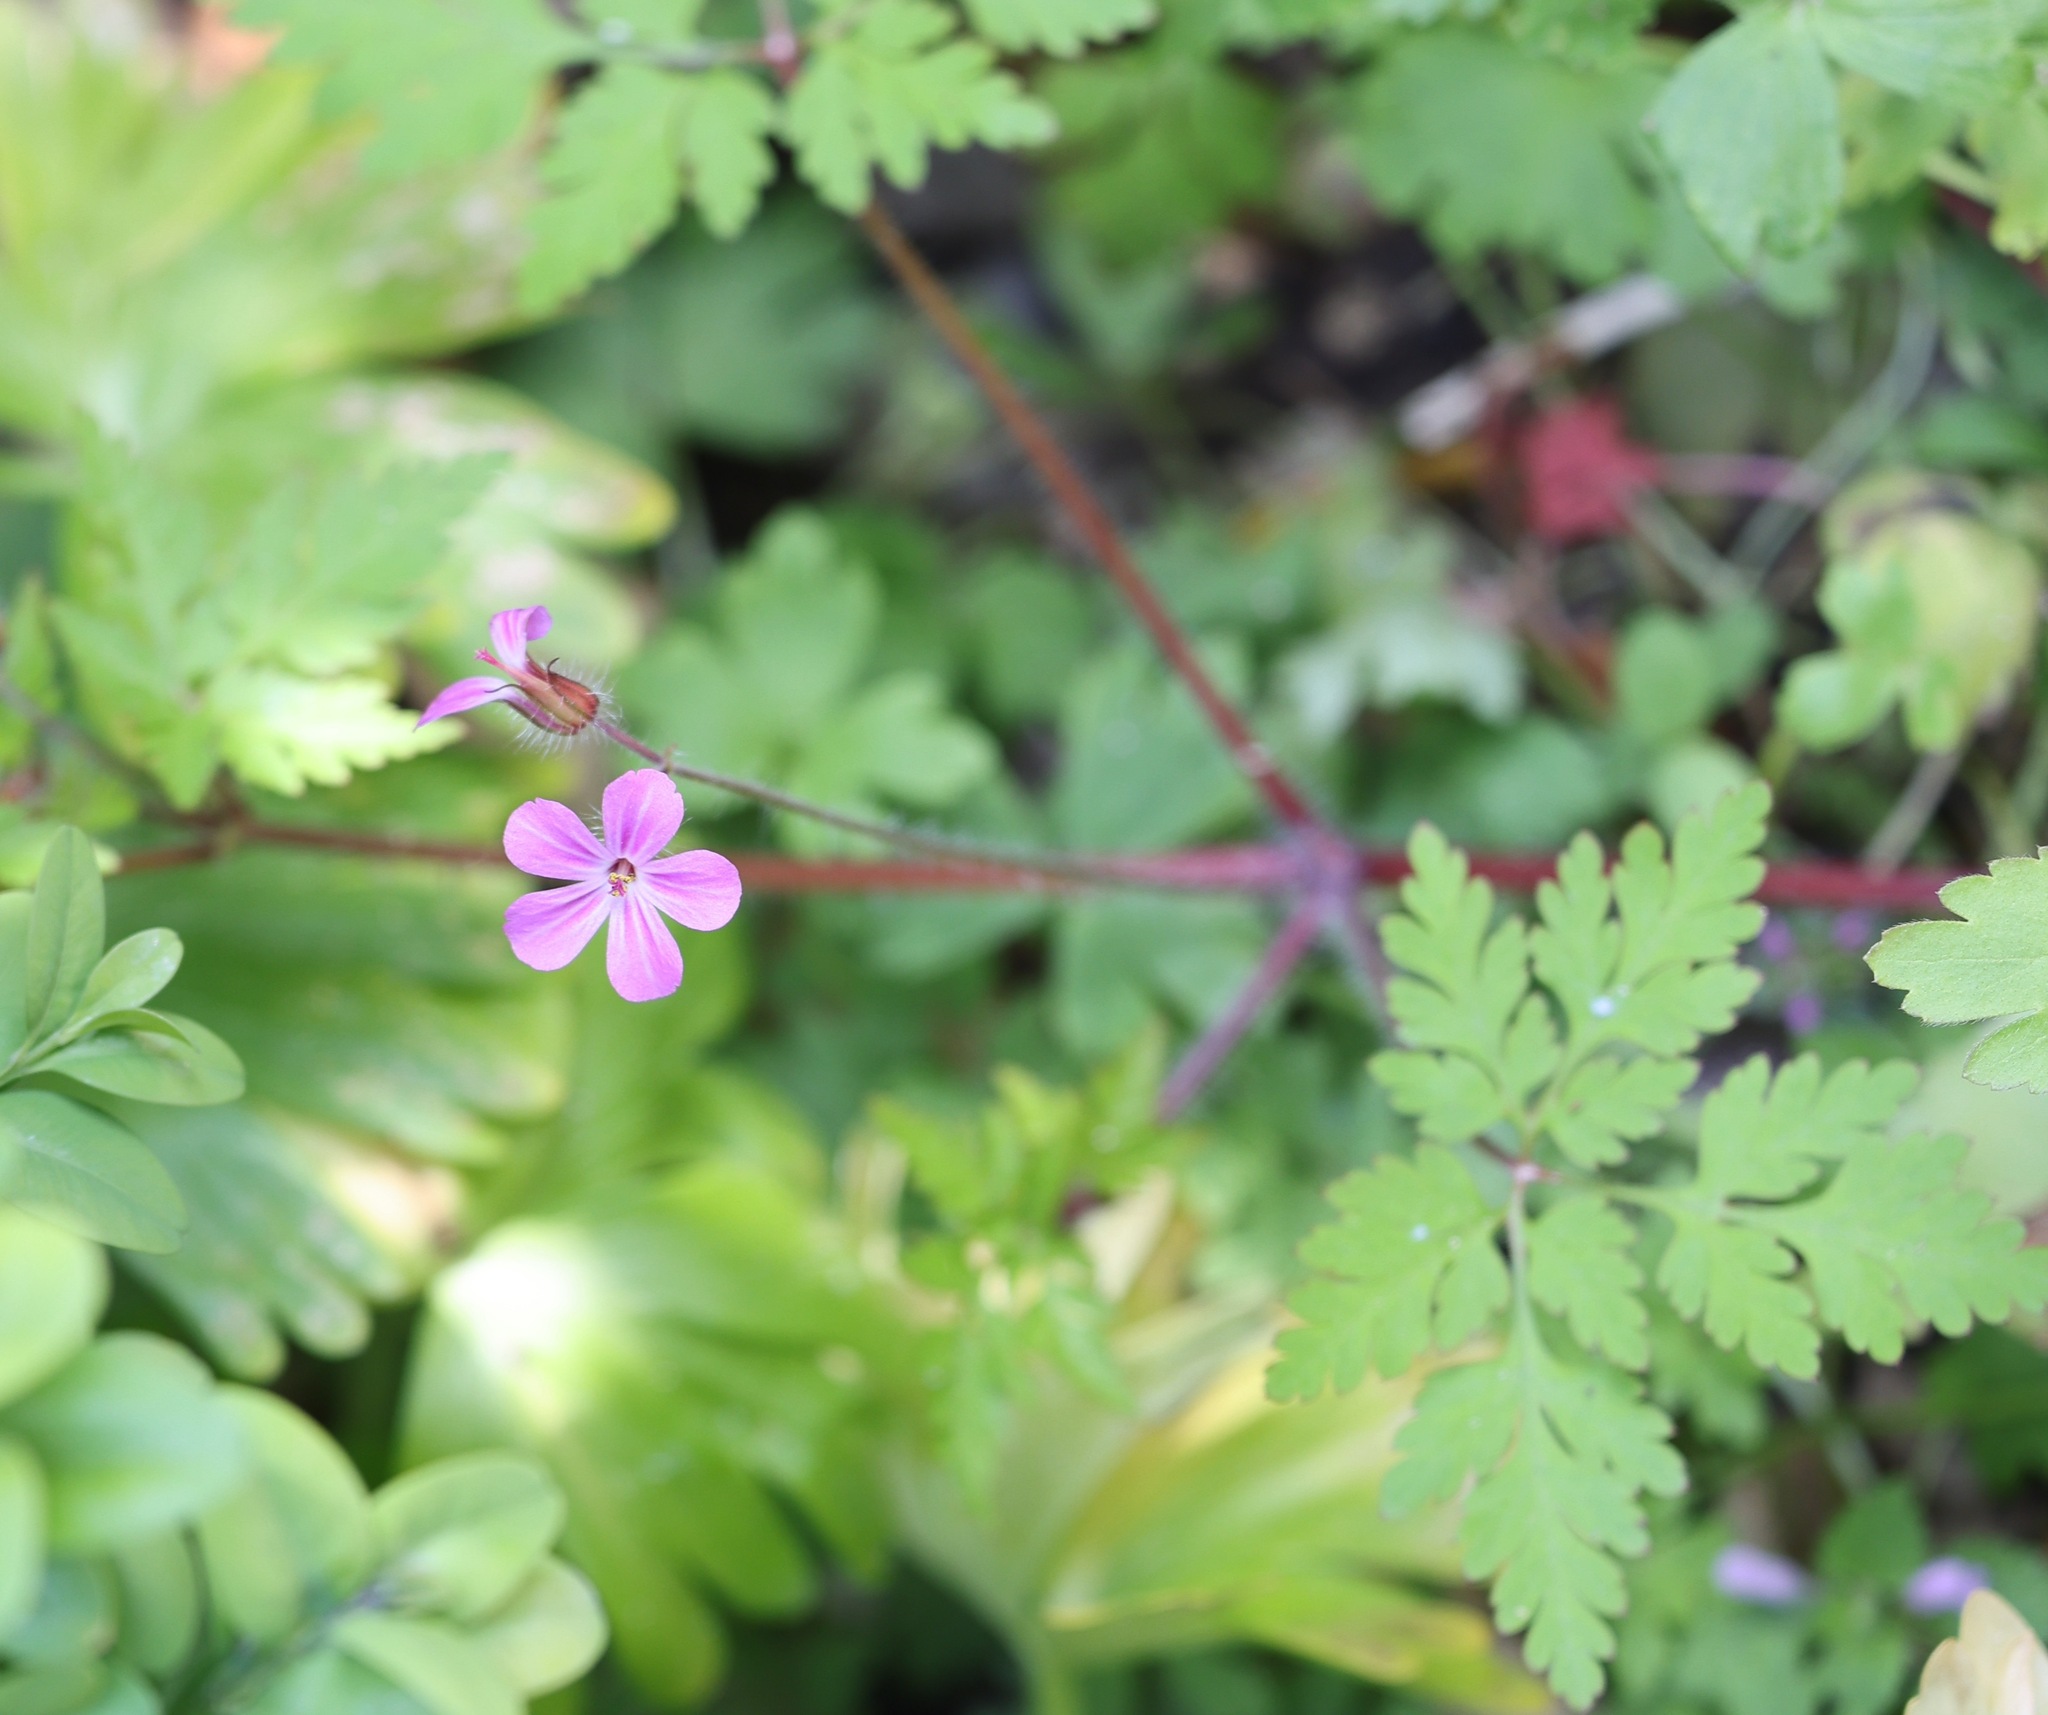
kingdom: Plantae
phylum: Tracheophyta
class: Magnoliopsida
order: Geraniales
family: Geraniaceae
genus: Geranium
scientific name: Geranium robertianum
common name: Herb-robert
